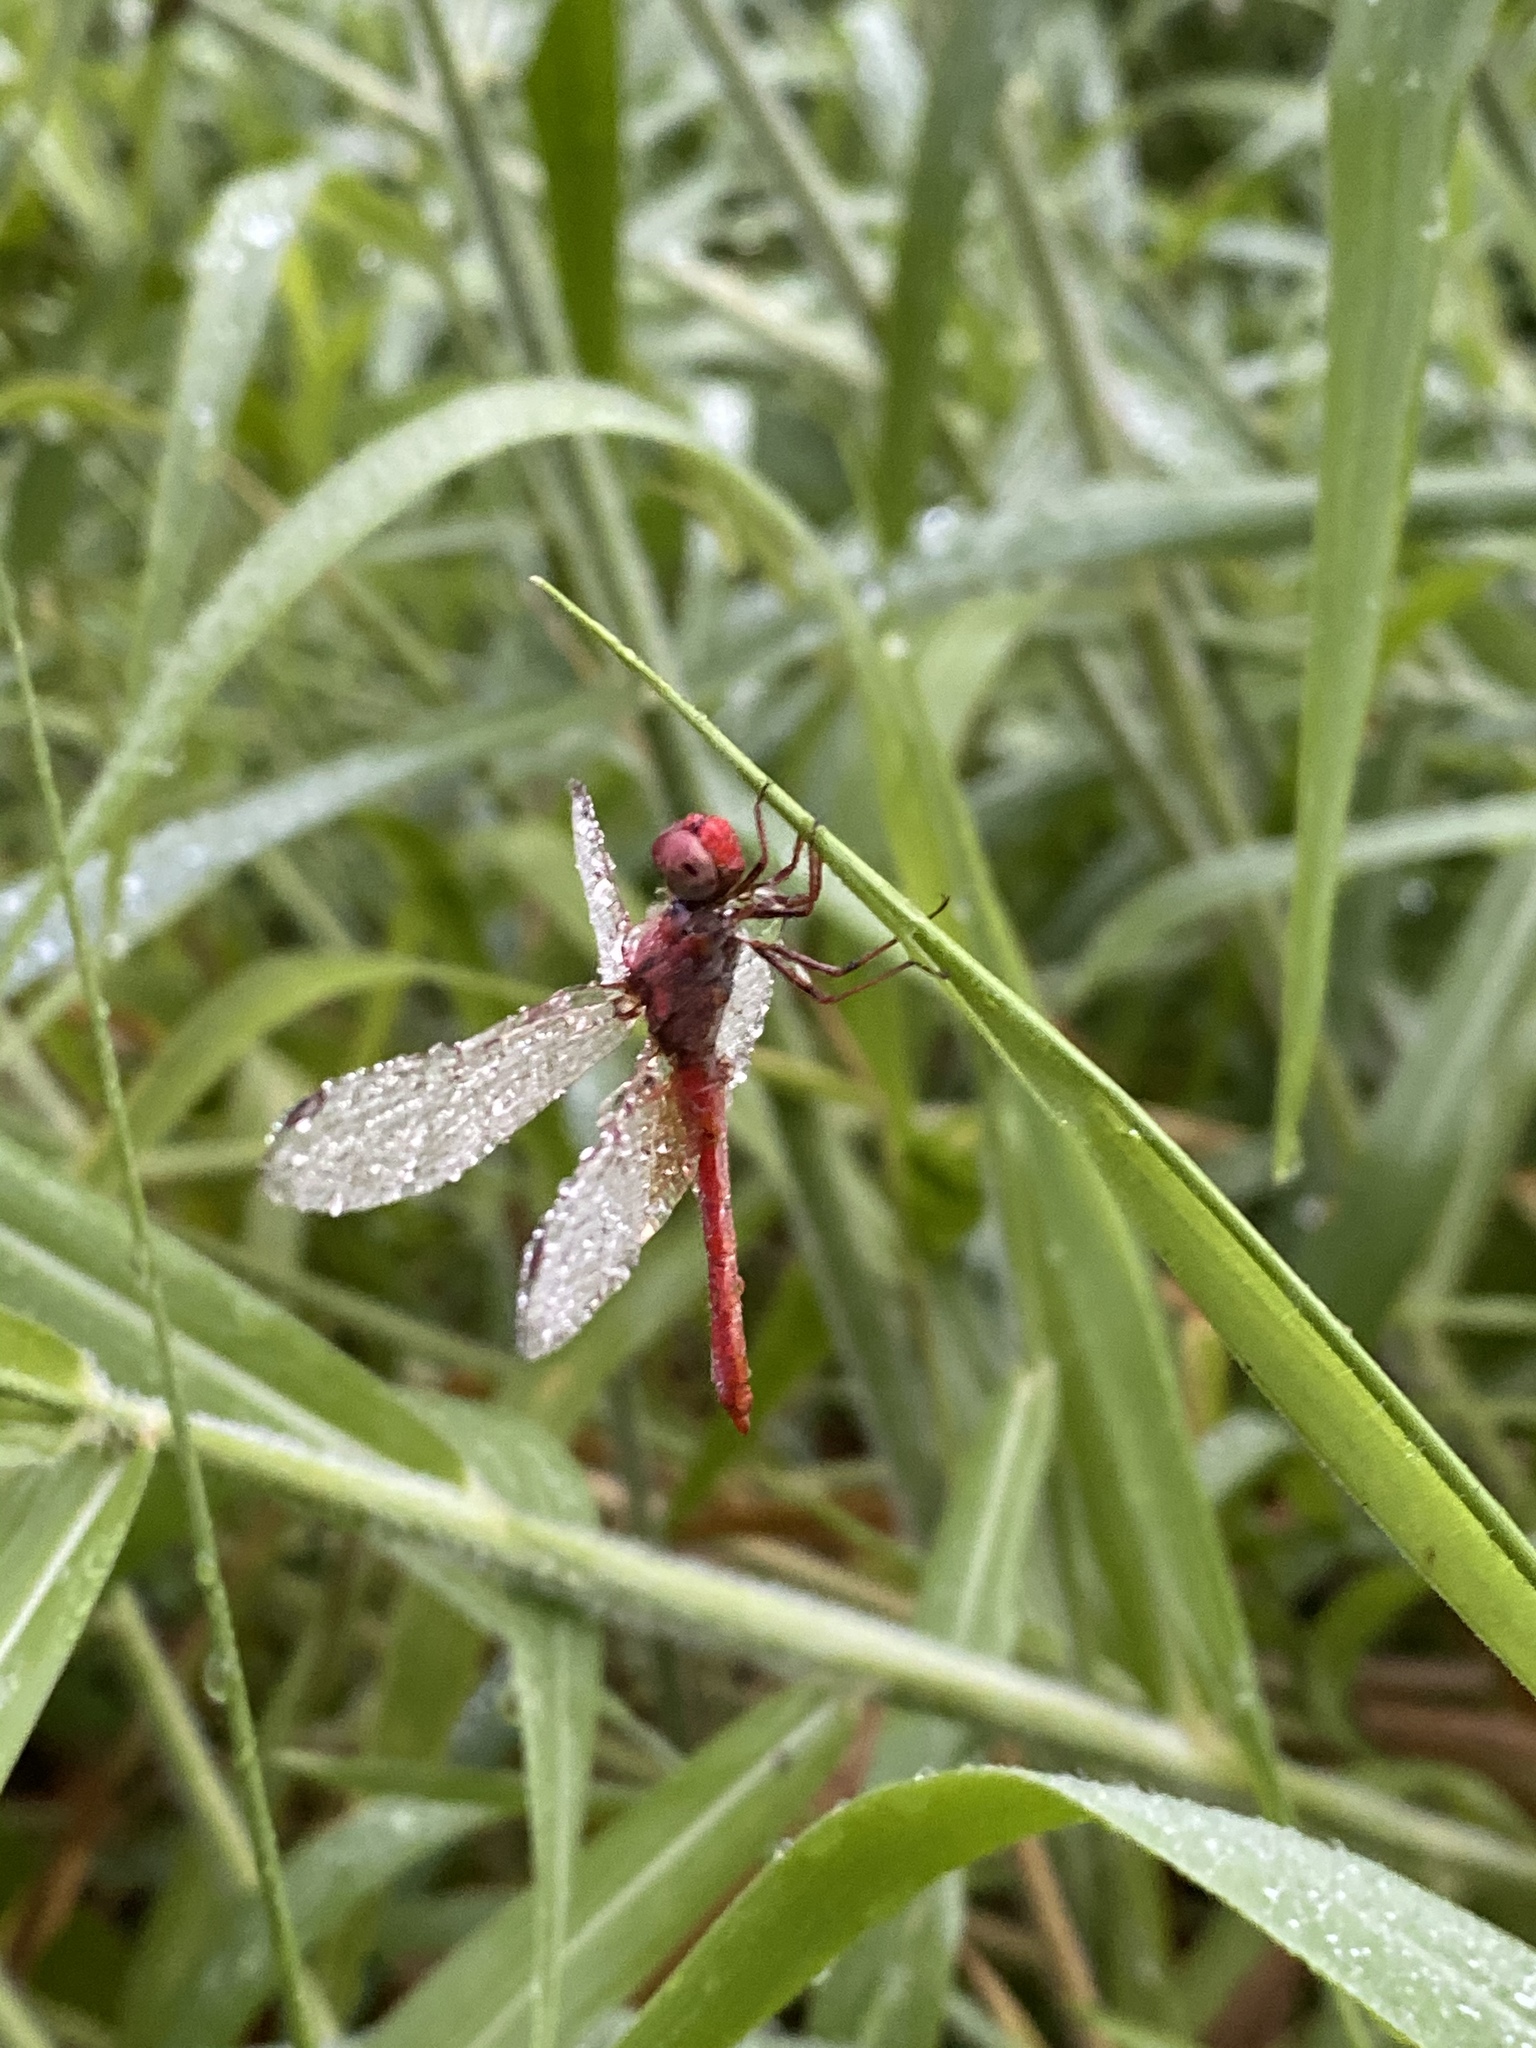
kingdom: Animalia
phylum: Arthropoda
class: Insecta
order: Odonata
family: Libellulidae
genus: Diplacodes
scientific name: Diplacodes bipunctata
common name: Red percher dragonfly
